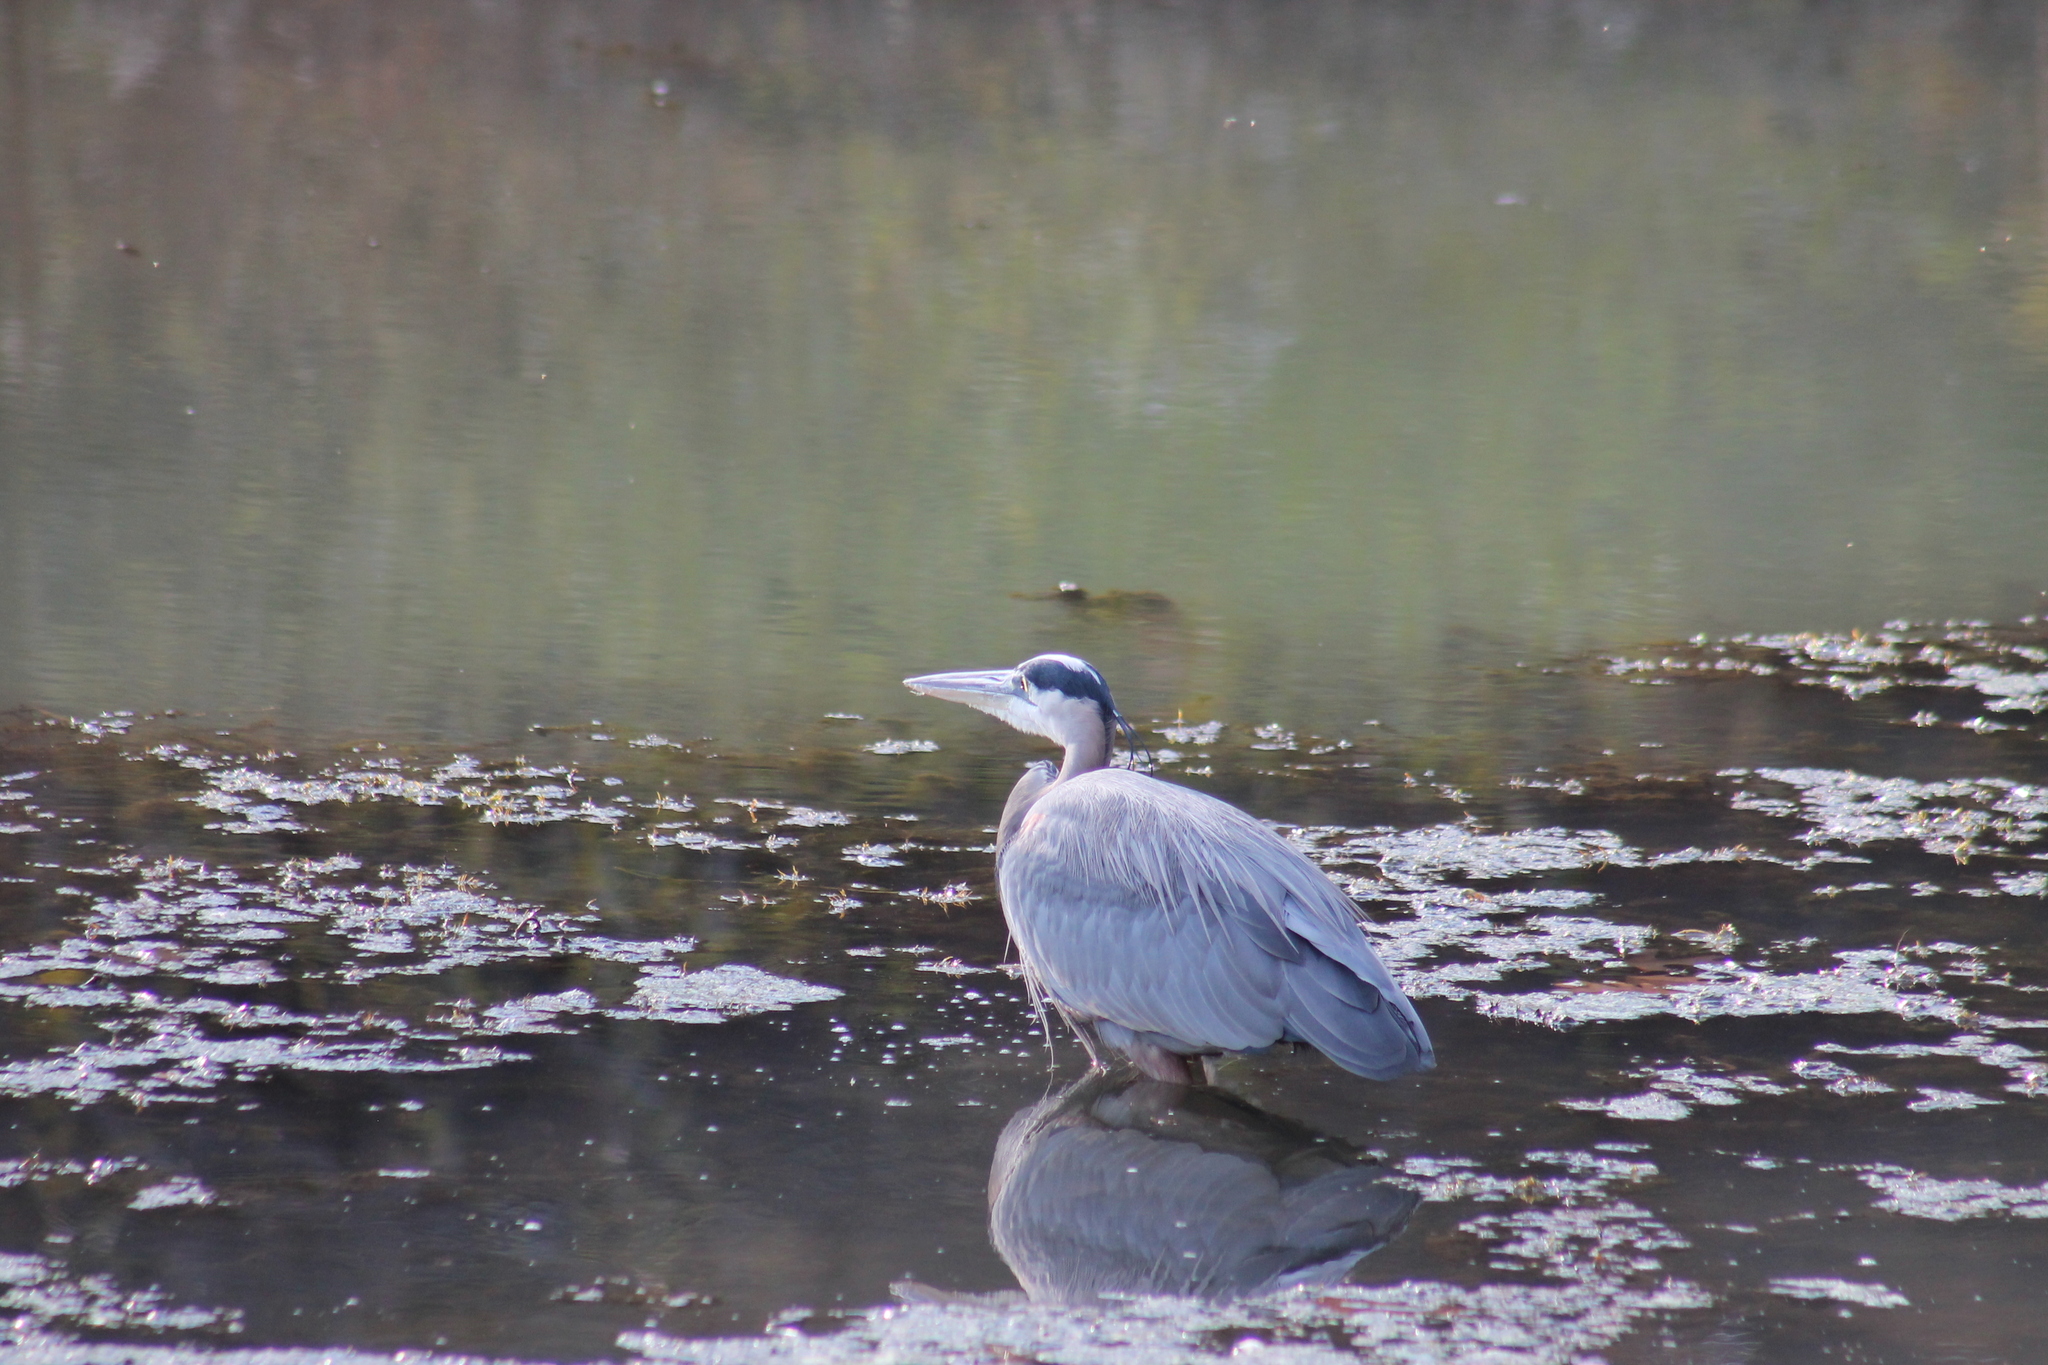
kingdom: Animalia
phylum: Chordata
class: Aves
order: Pelecaniformes
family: Ardeidae
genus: Ardea
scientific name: Ardea herodias
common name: Great blue heron
